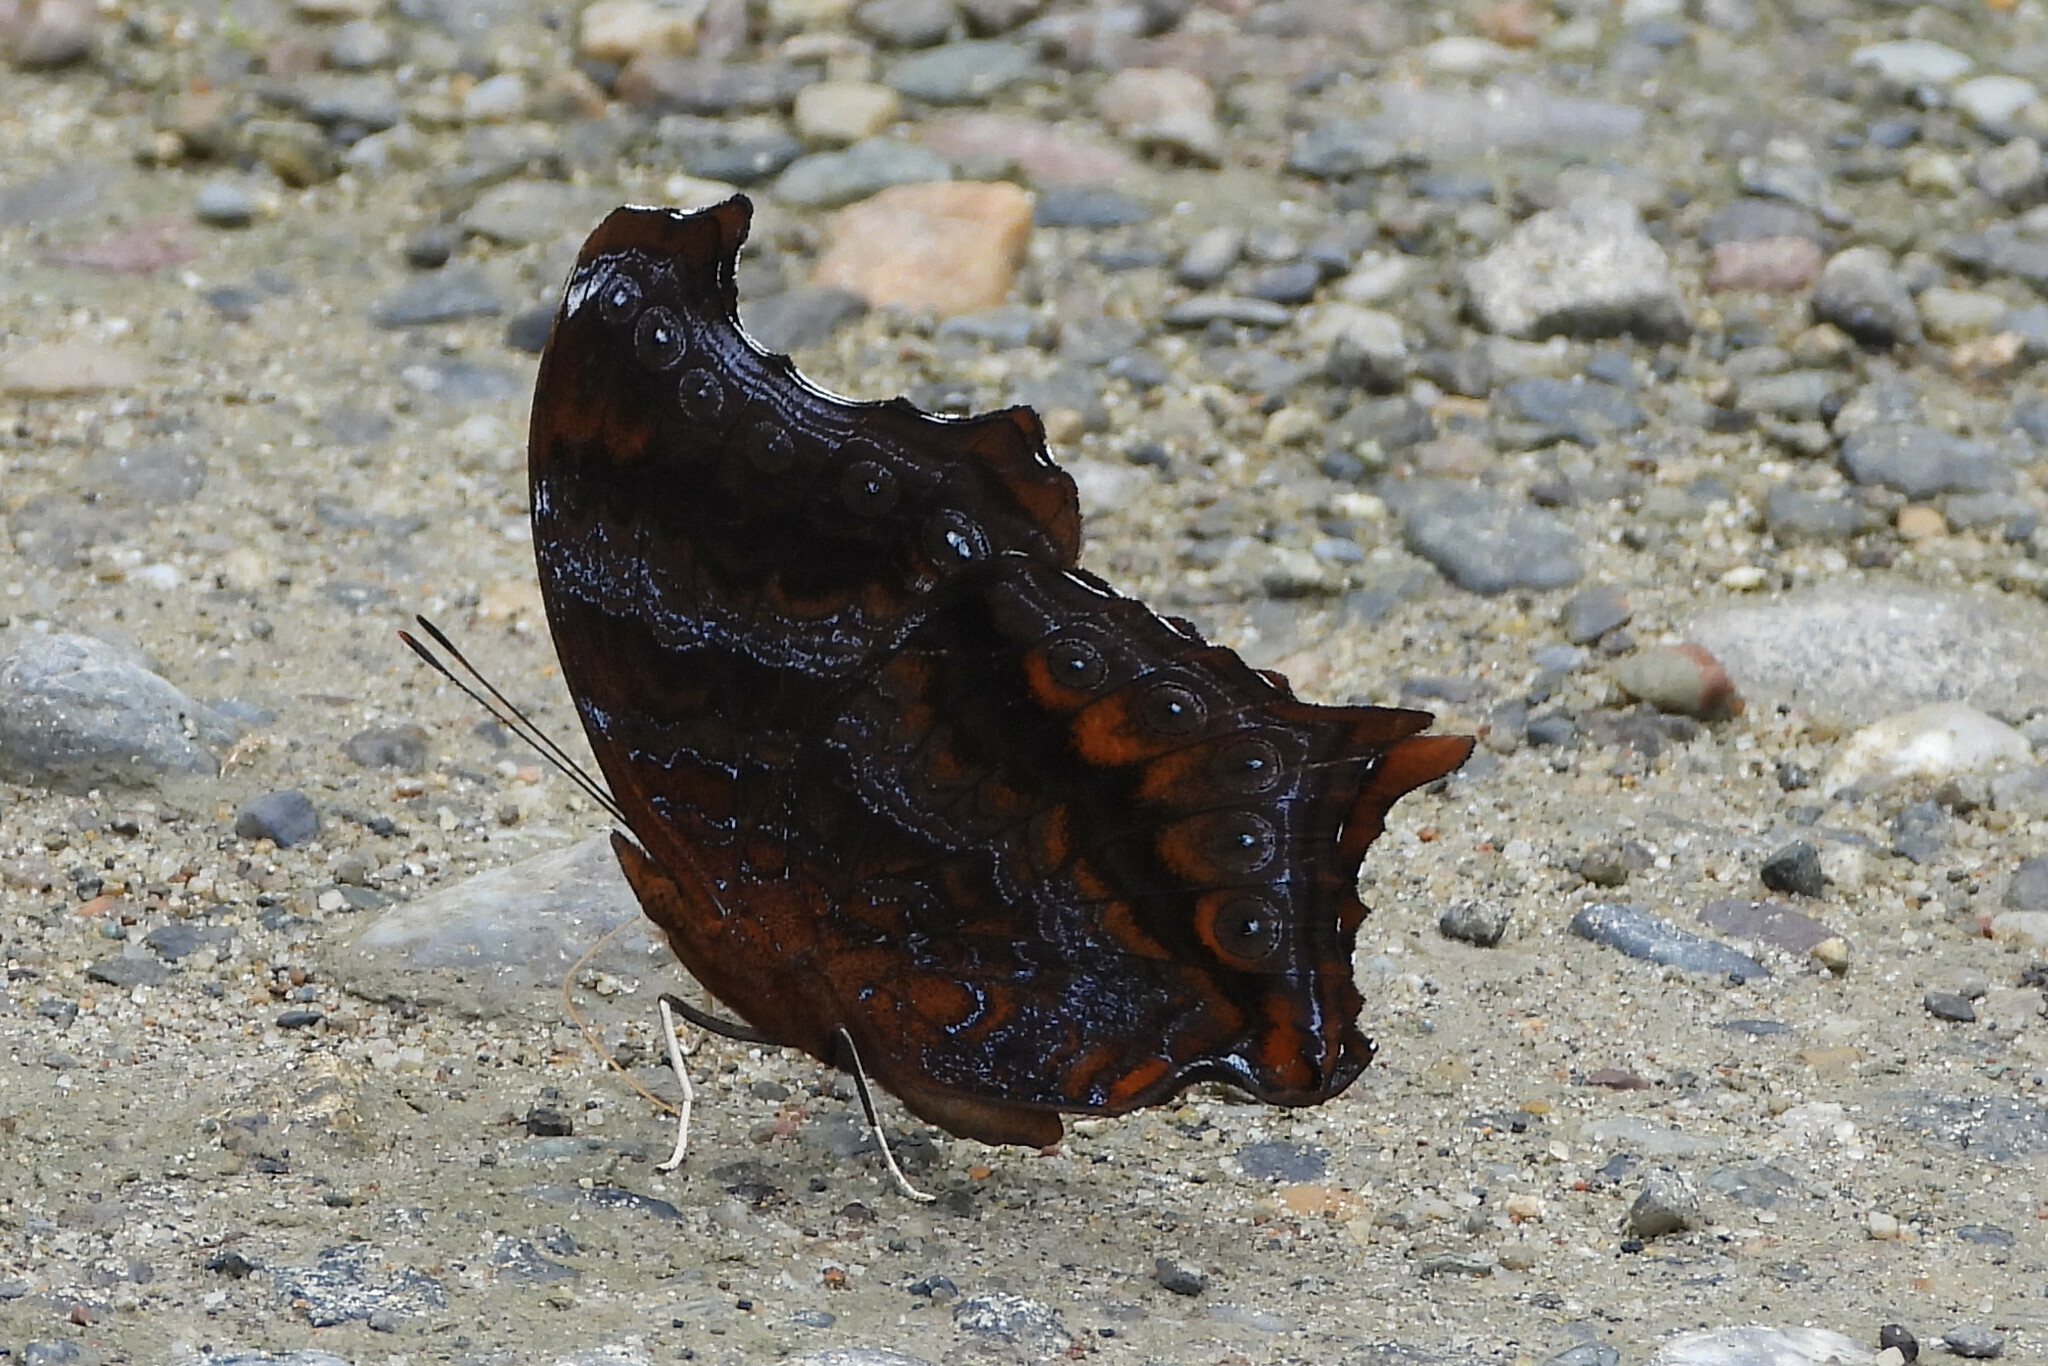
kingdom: Animalia
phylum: Arthropoda
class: Insecta
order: Lepidoptera
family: Nymphalidae
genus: Rhinopalpa
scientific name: Rhinopalpa polynice
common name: Wizard
